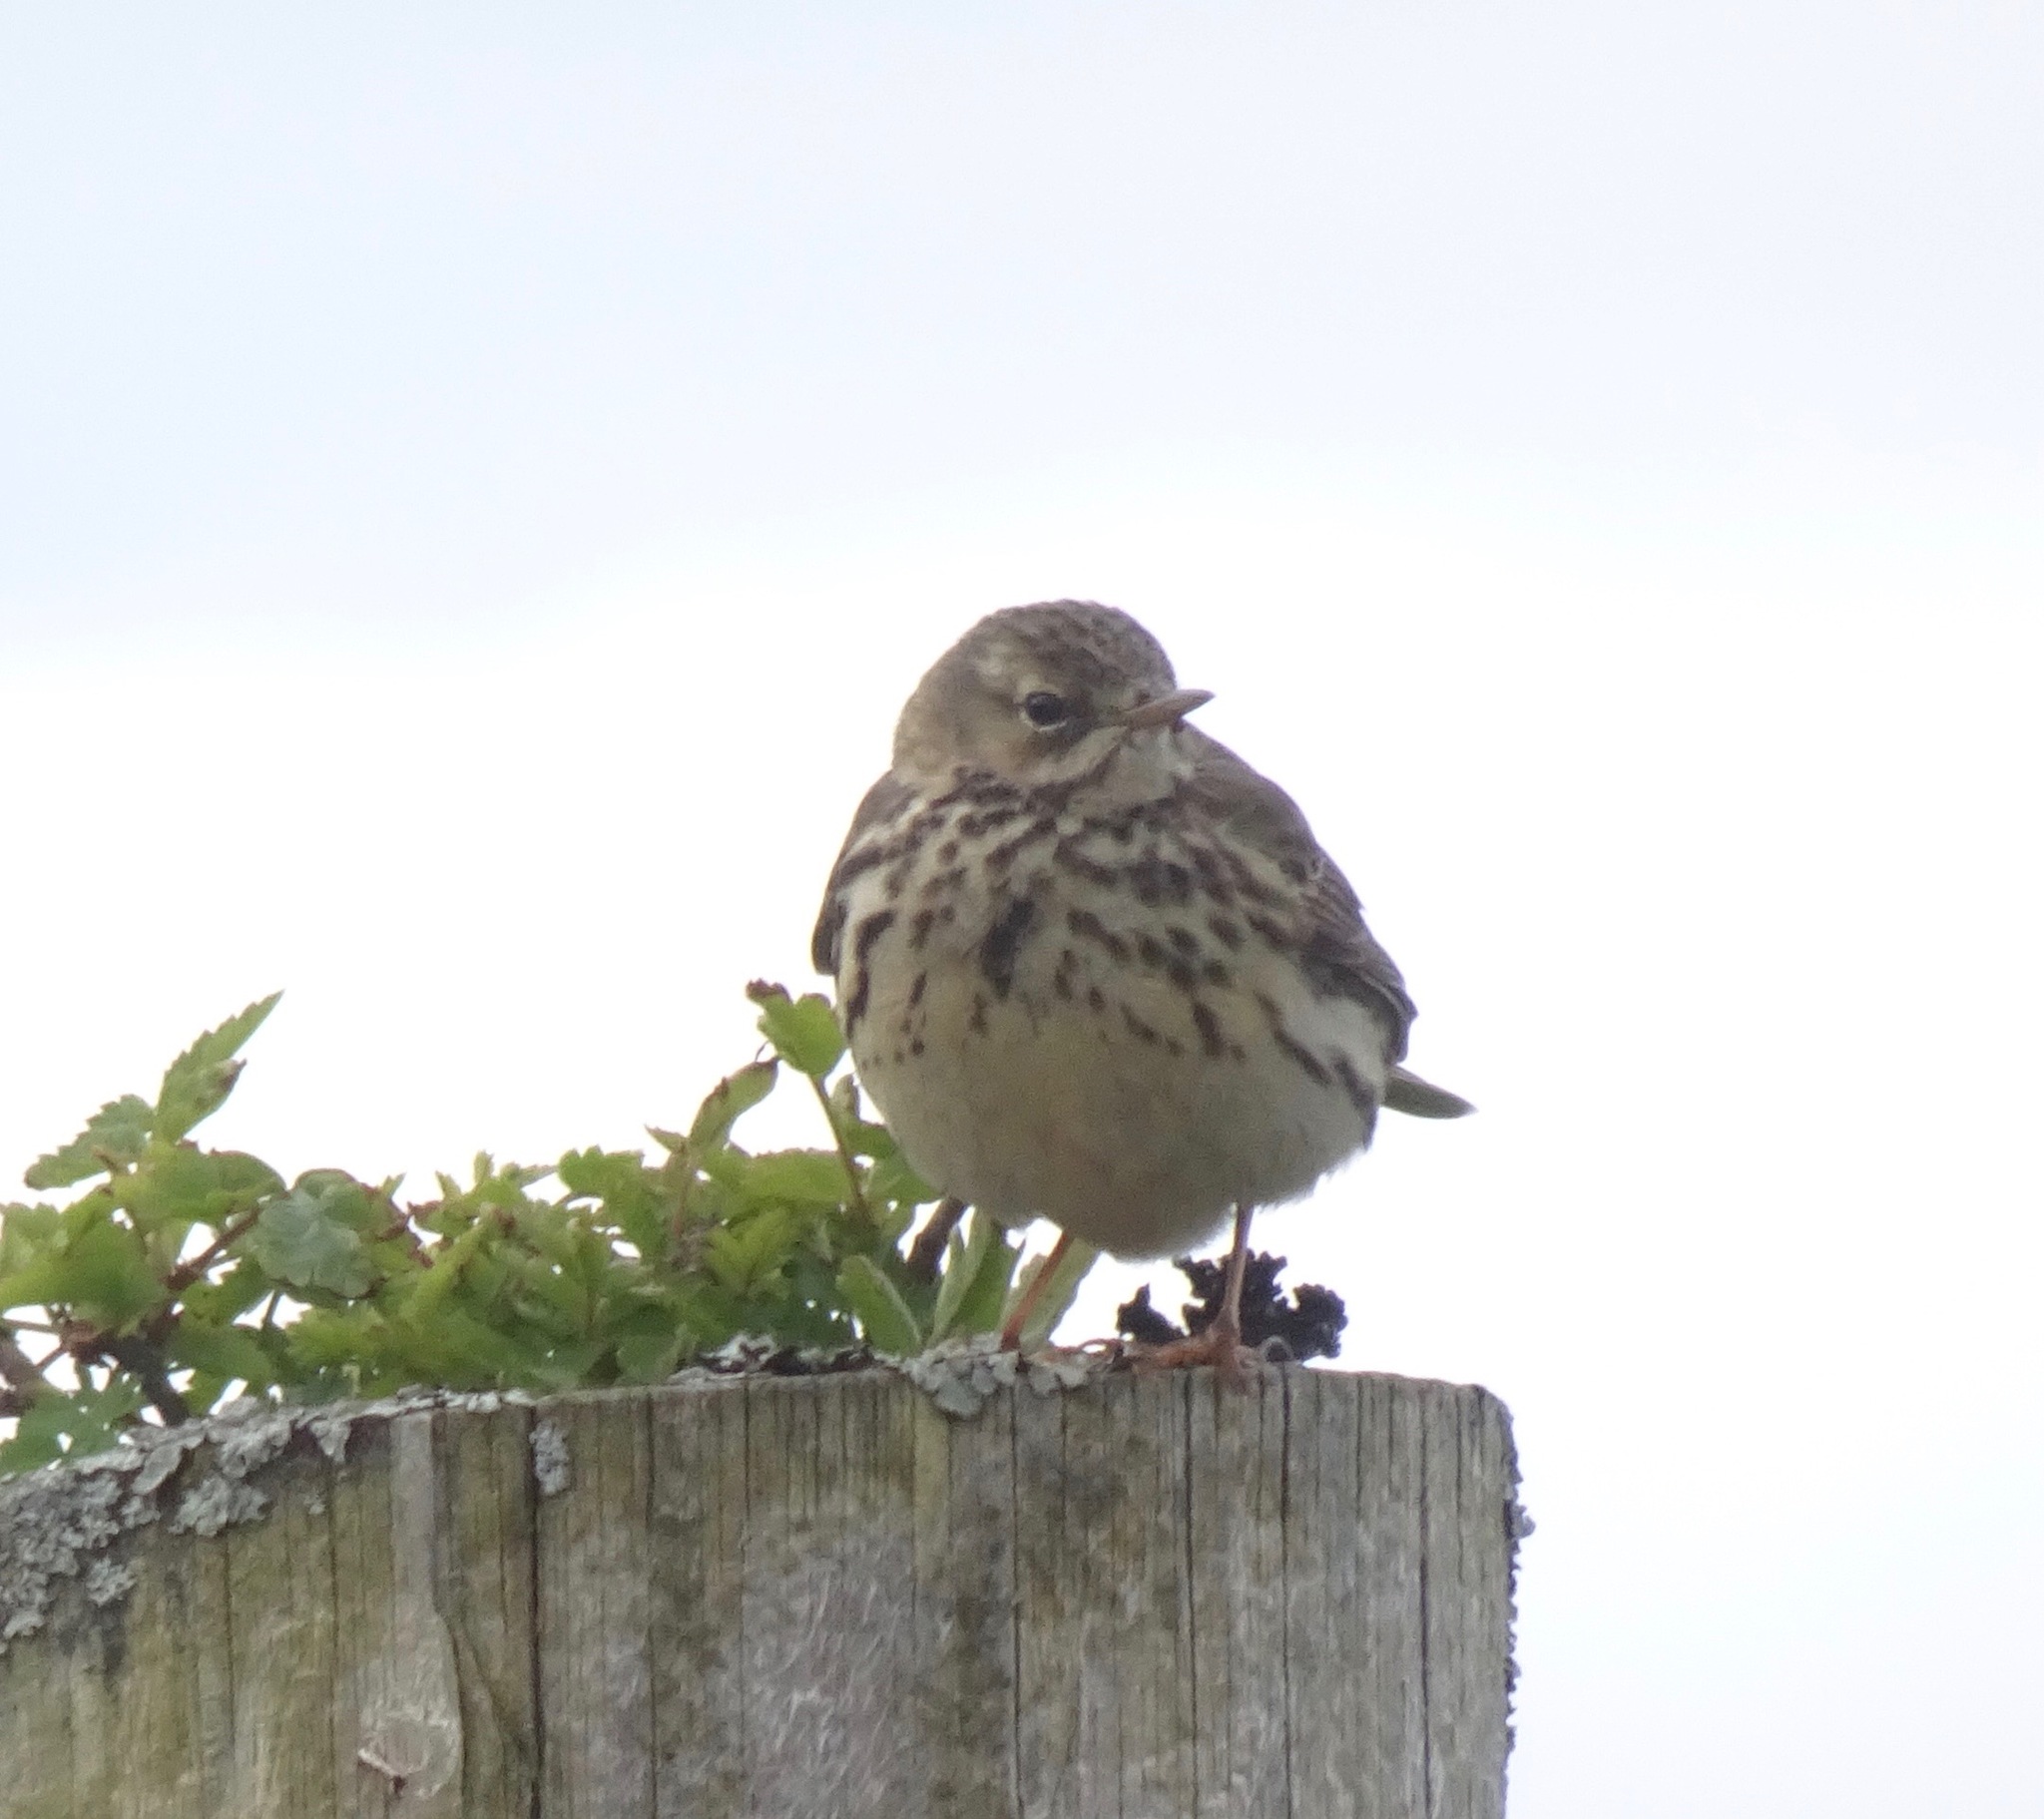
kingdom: Animalia
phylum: Chordata
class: Aves
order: Passeriformes
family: Motacillidae
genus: Anthus
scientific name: Anthus pratensis
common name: Meadow pipit
